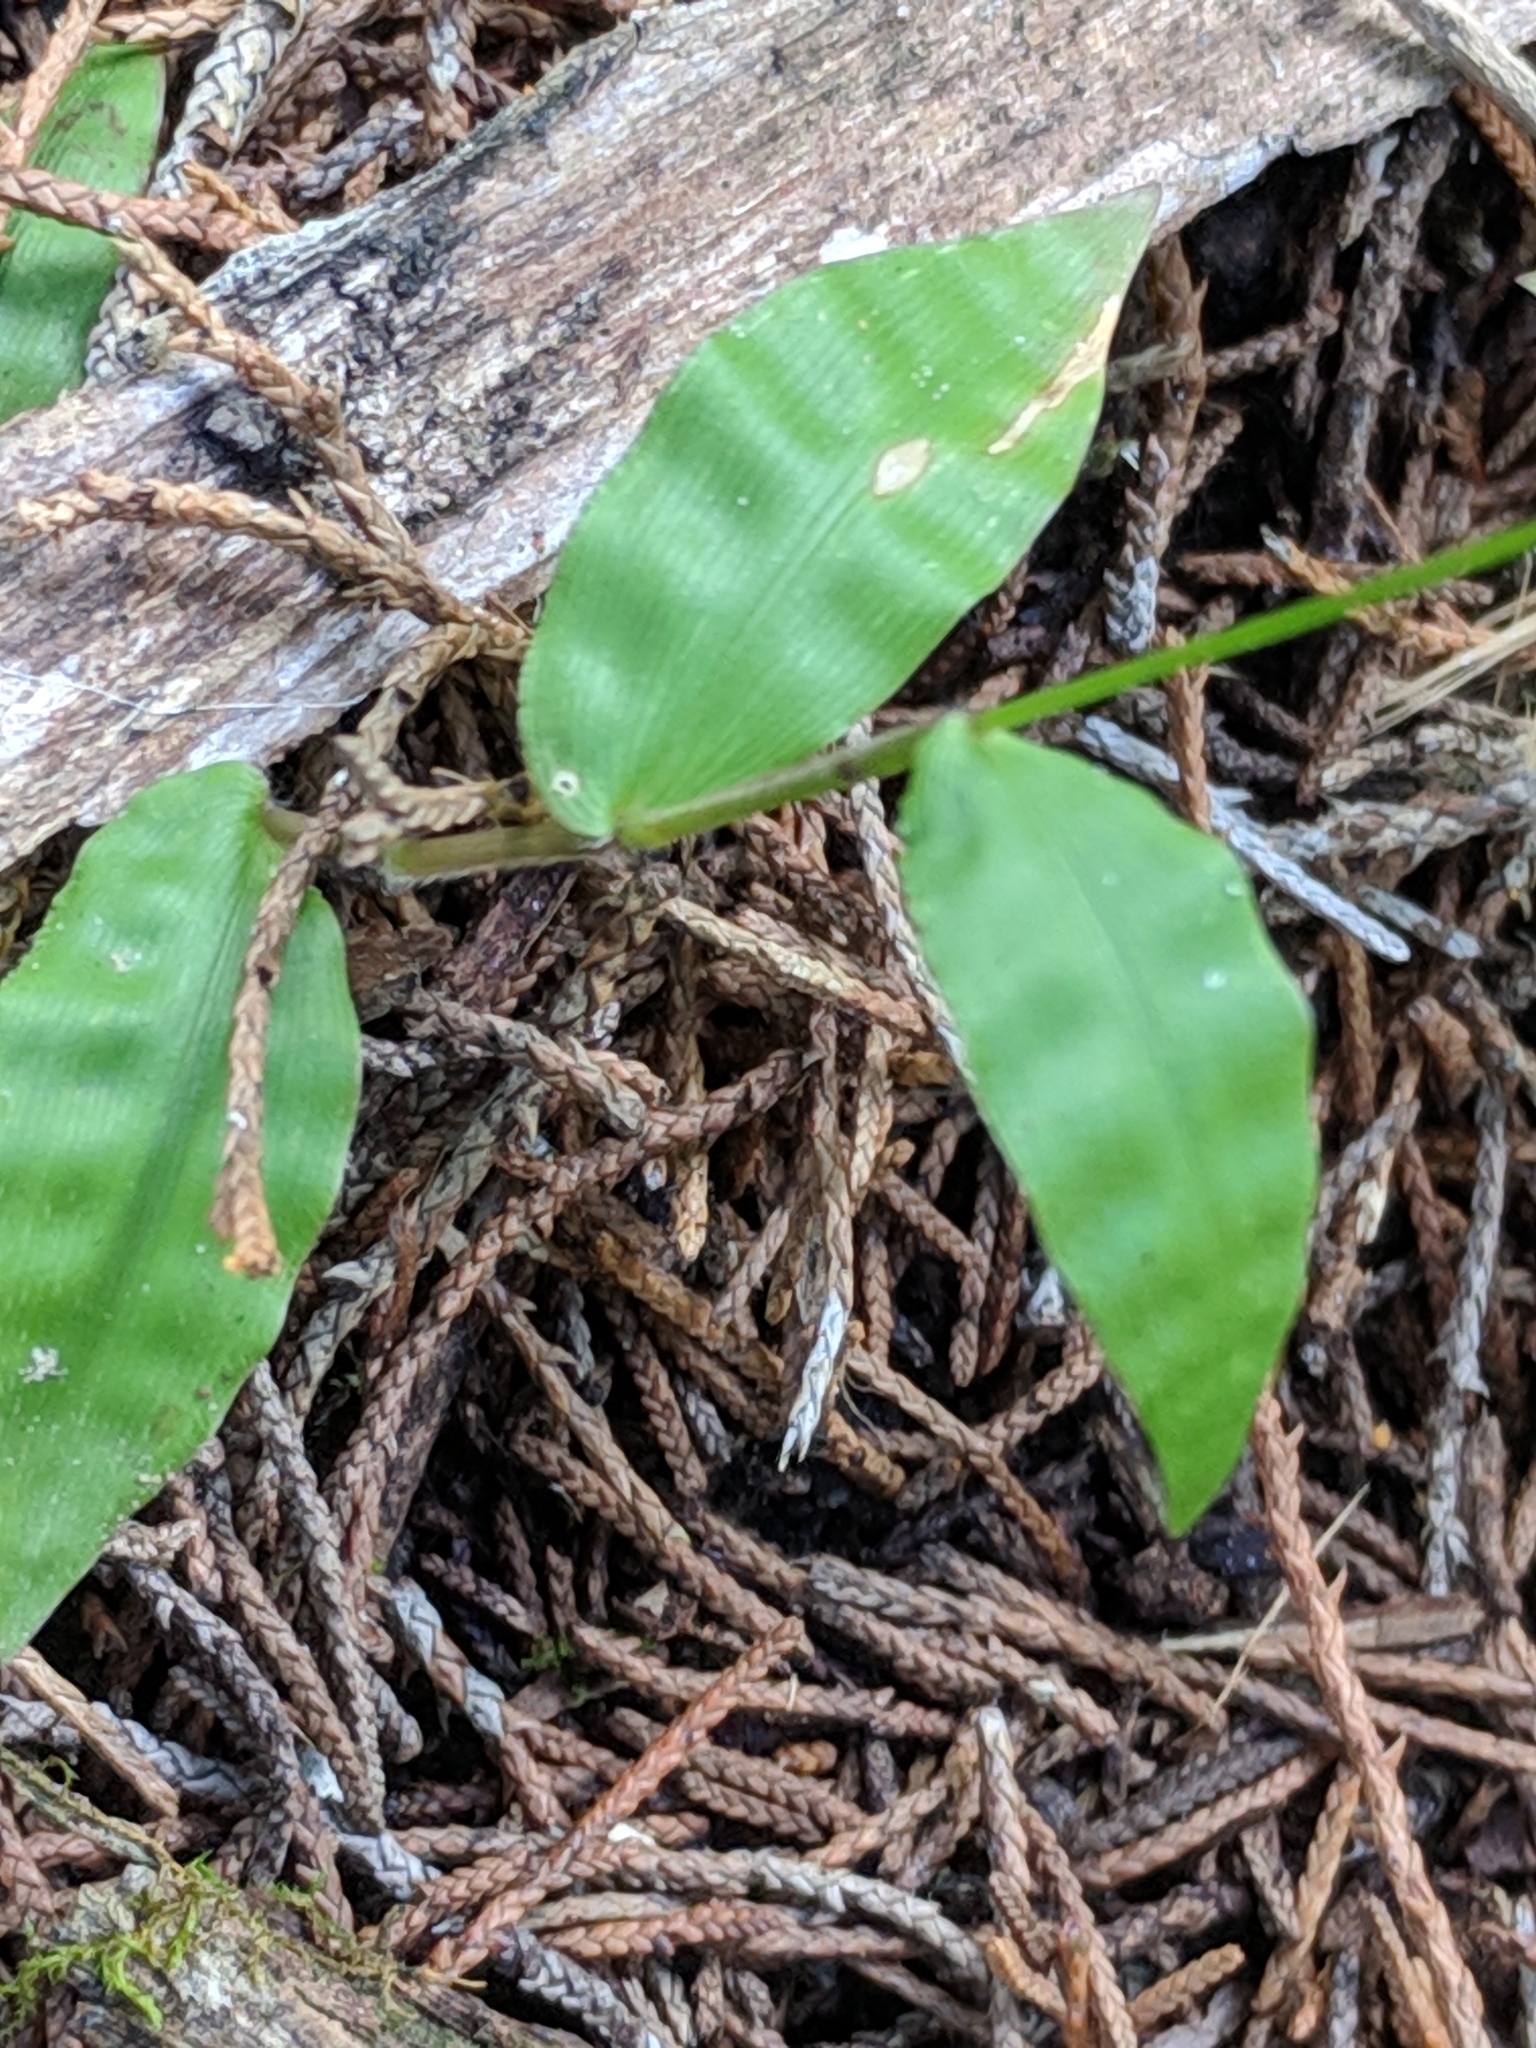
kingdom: Plantae
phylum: Tracheophyta
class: Liliopsida
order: Poales
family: Poaceae
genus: Oplismenus
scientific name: Oplismenus hirtellus
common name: Basketgrass
